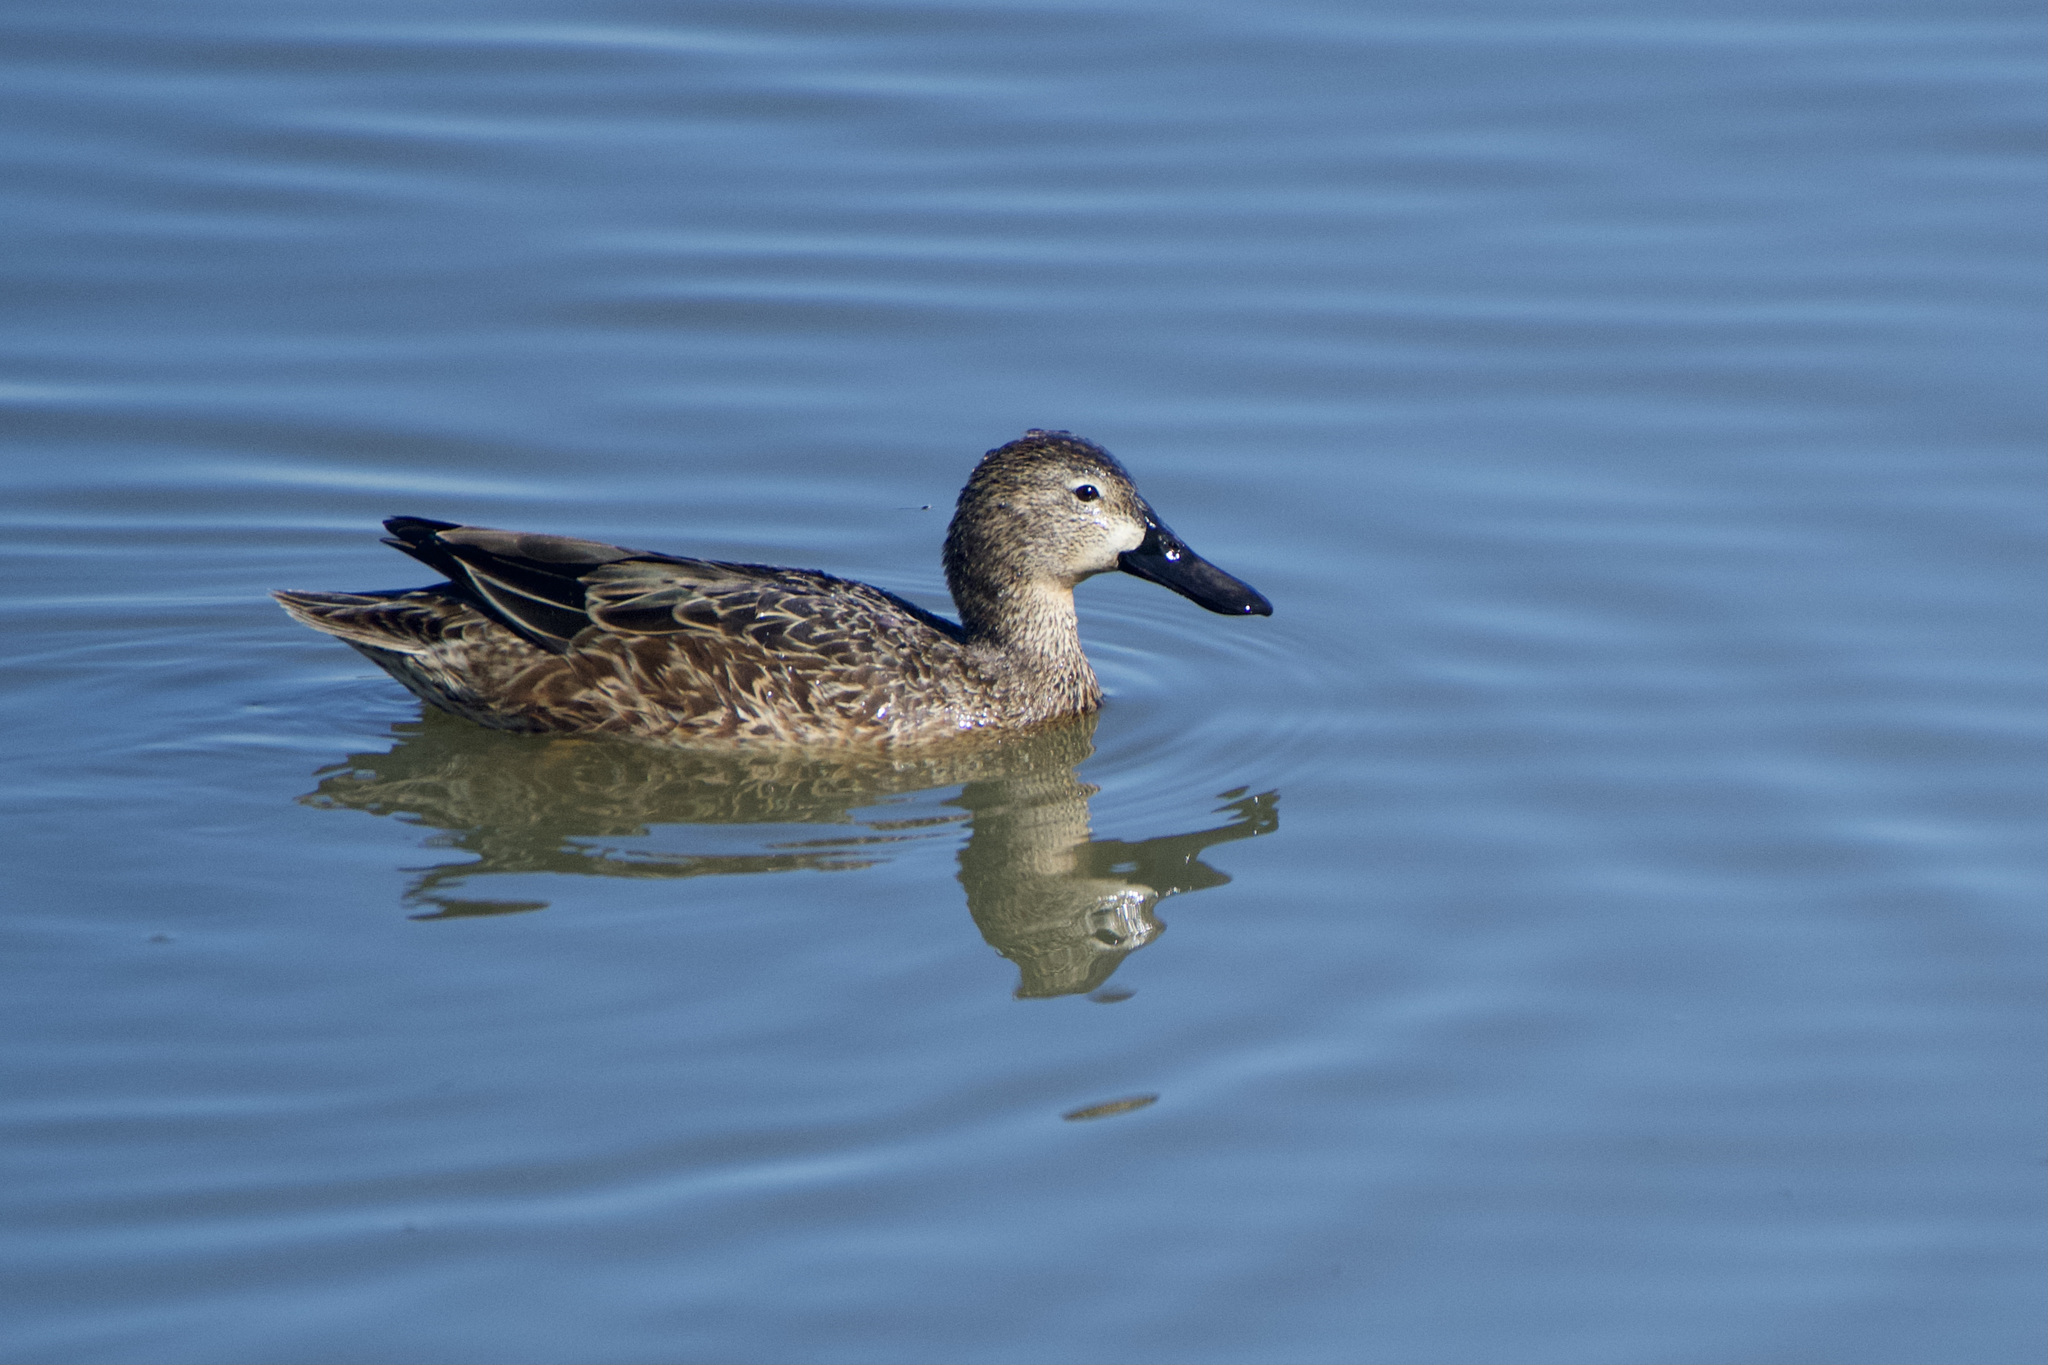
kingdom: Animalia
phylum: Chordata
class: Aves
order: Anseriformes
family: Anatidae
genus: Spatula
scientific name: Spatula cyanoptera
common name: Cinnamon teal
